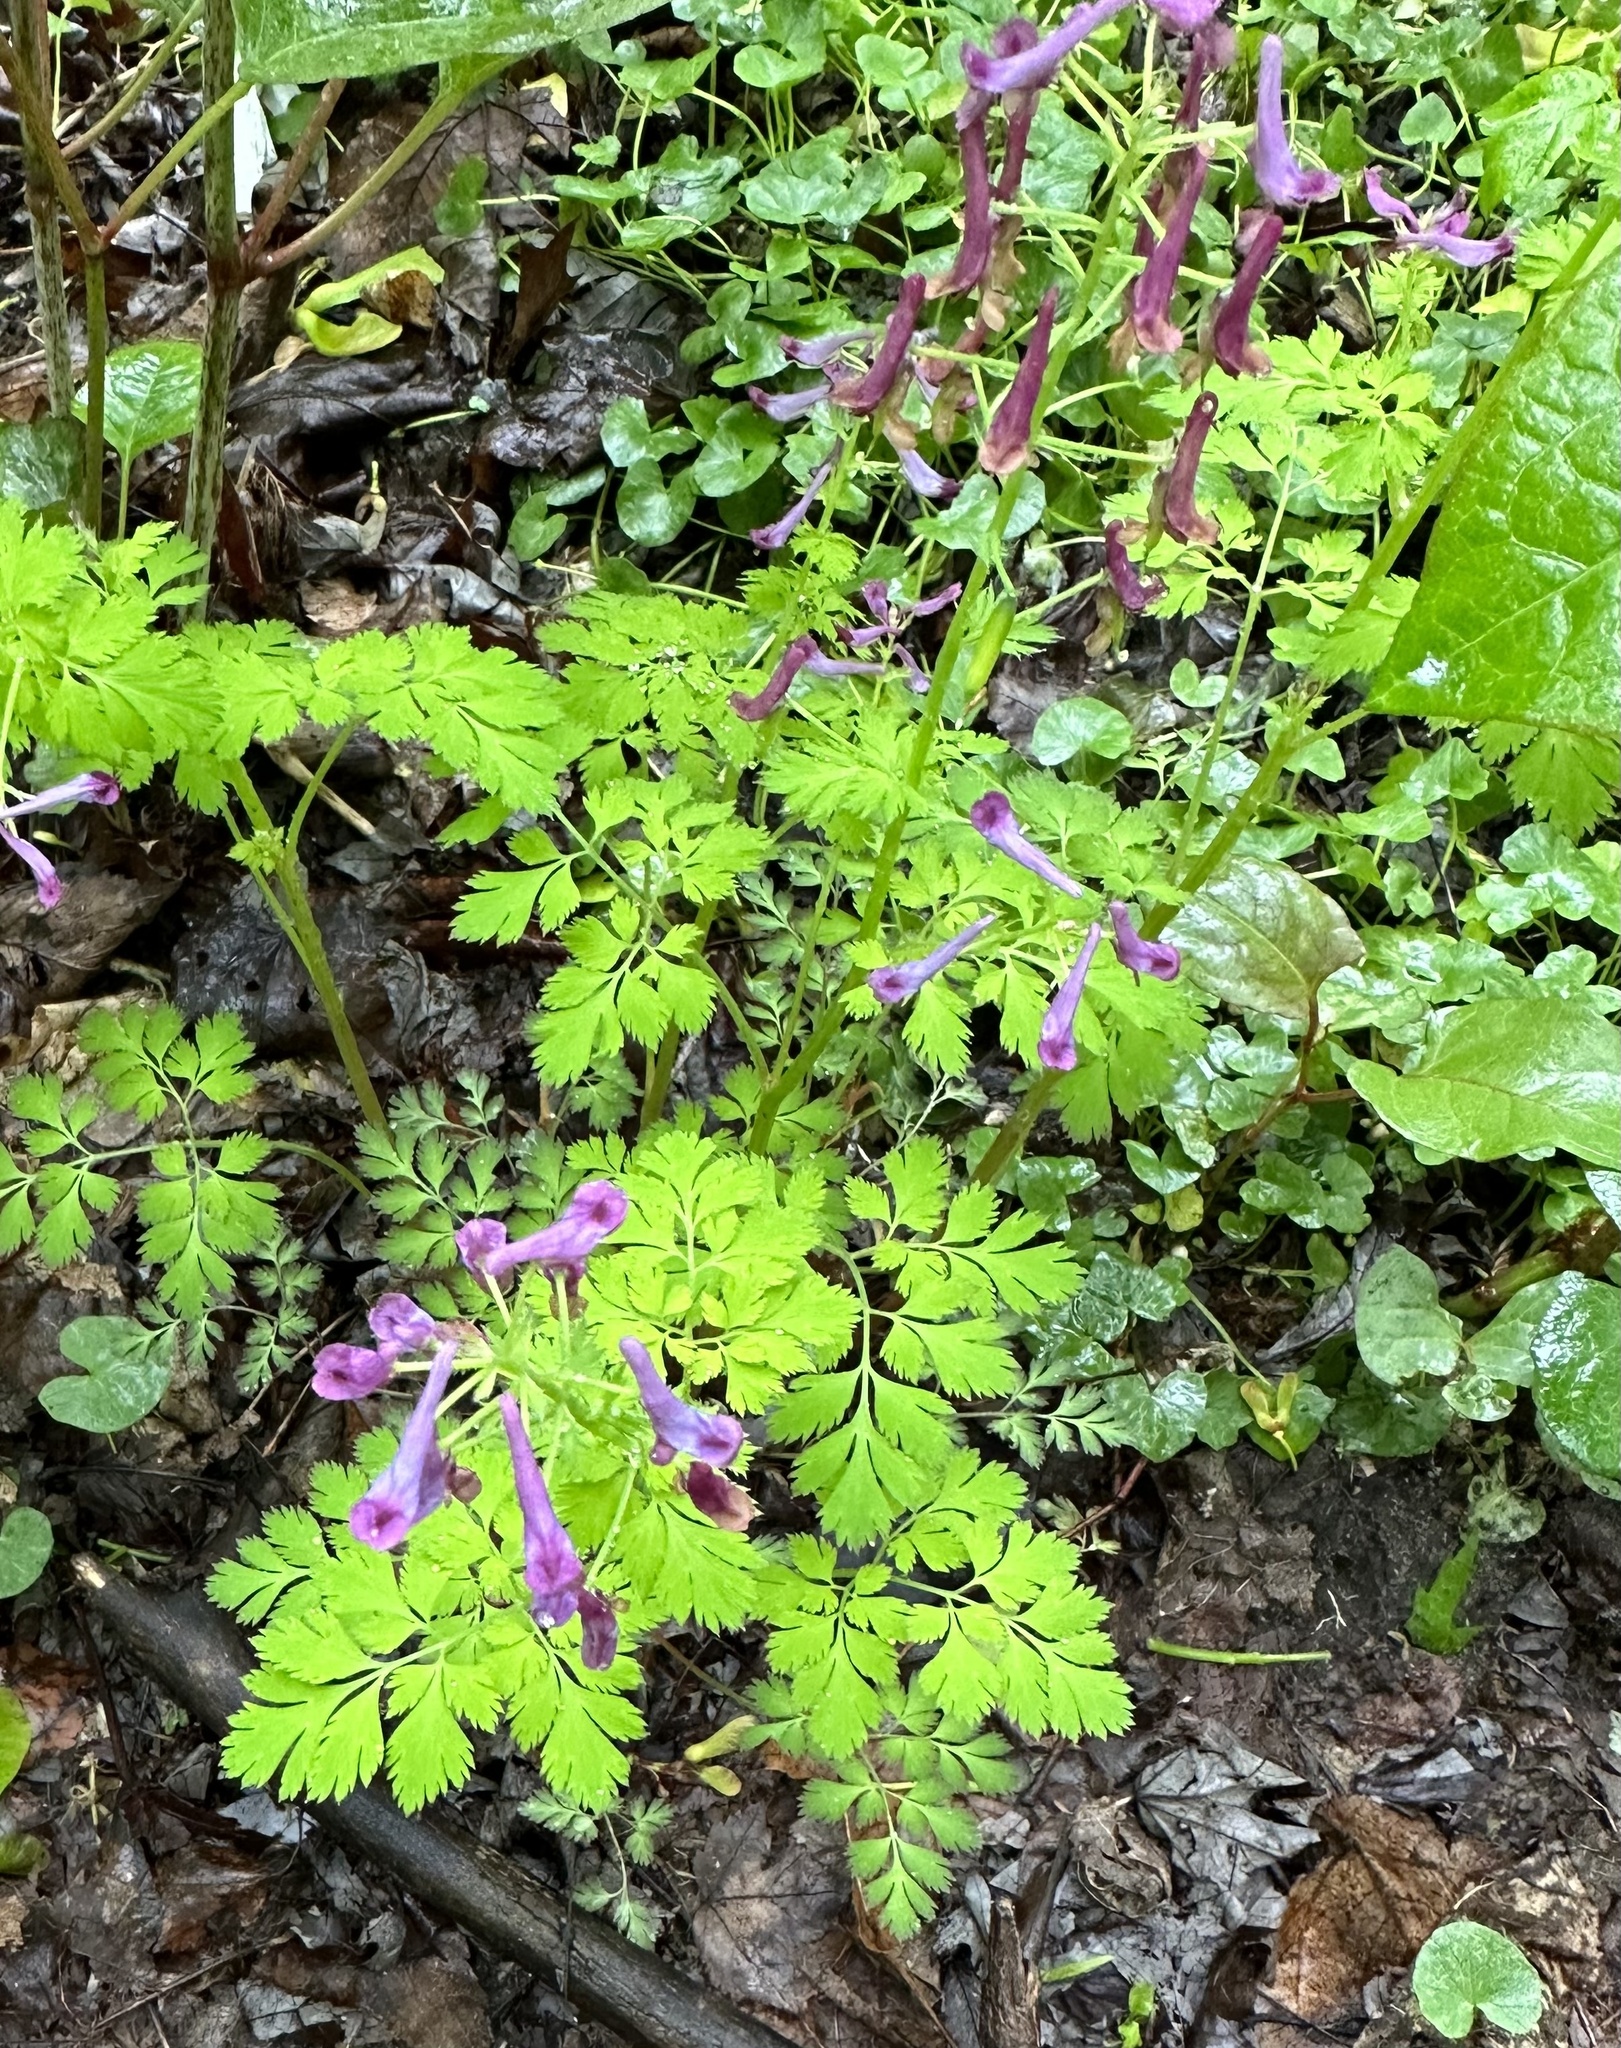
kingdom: Plantae
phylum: Tracheophyta
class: Magnoliopsida
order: Ranunculales
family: Papaveraceae
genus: Corydalis
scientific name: Corydalis incisa
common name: Incised fumewort
